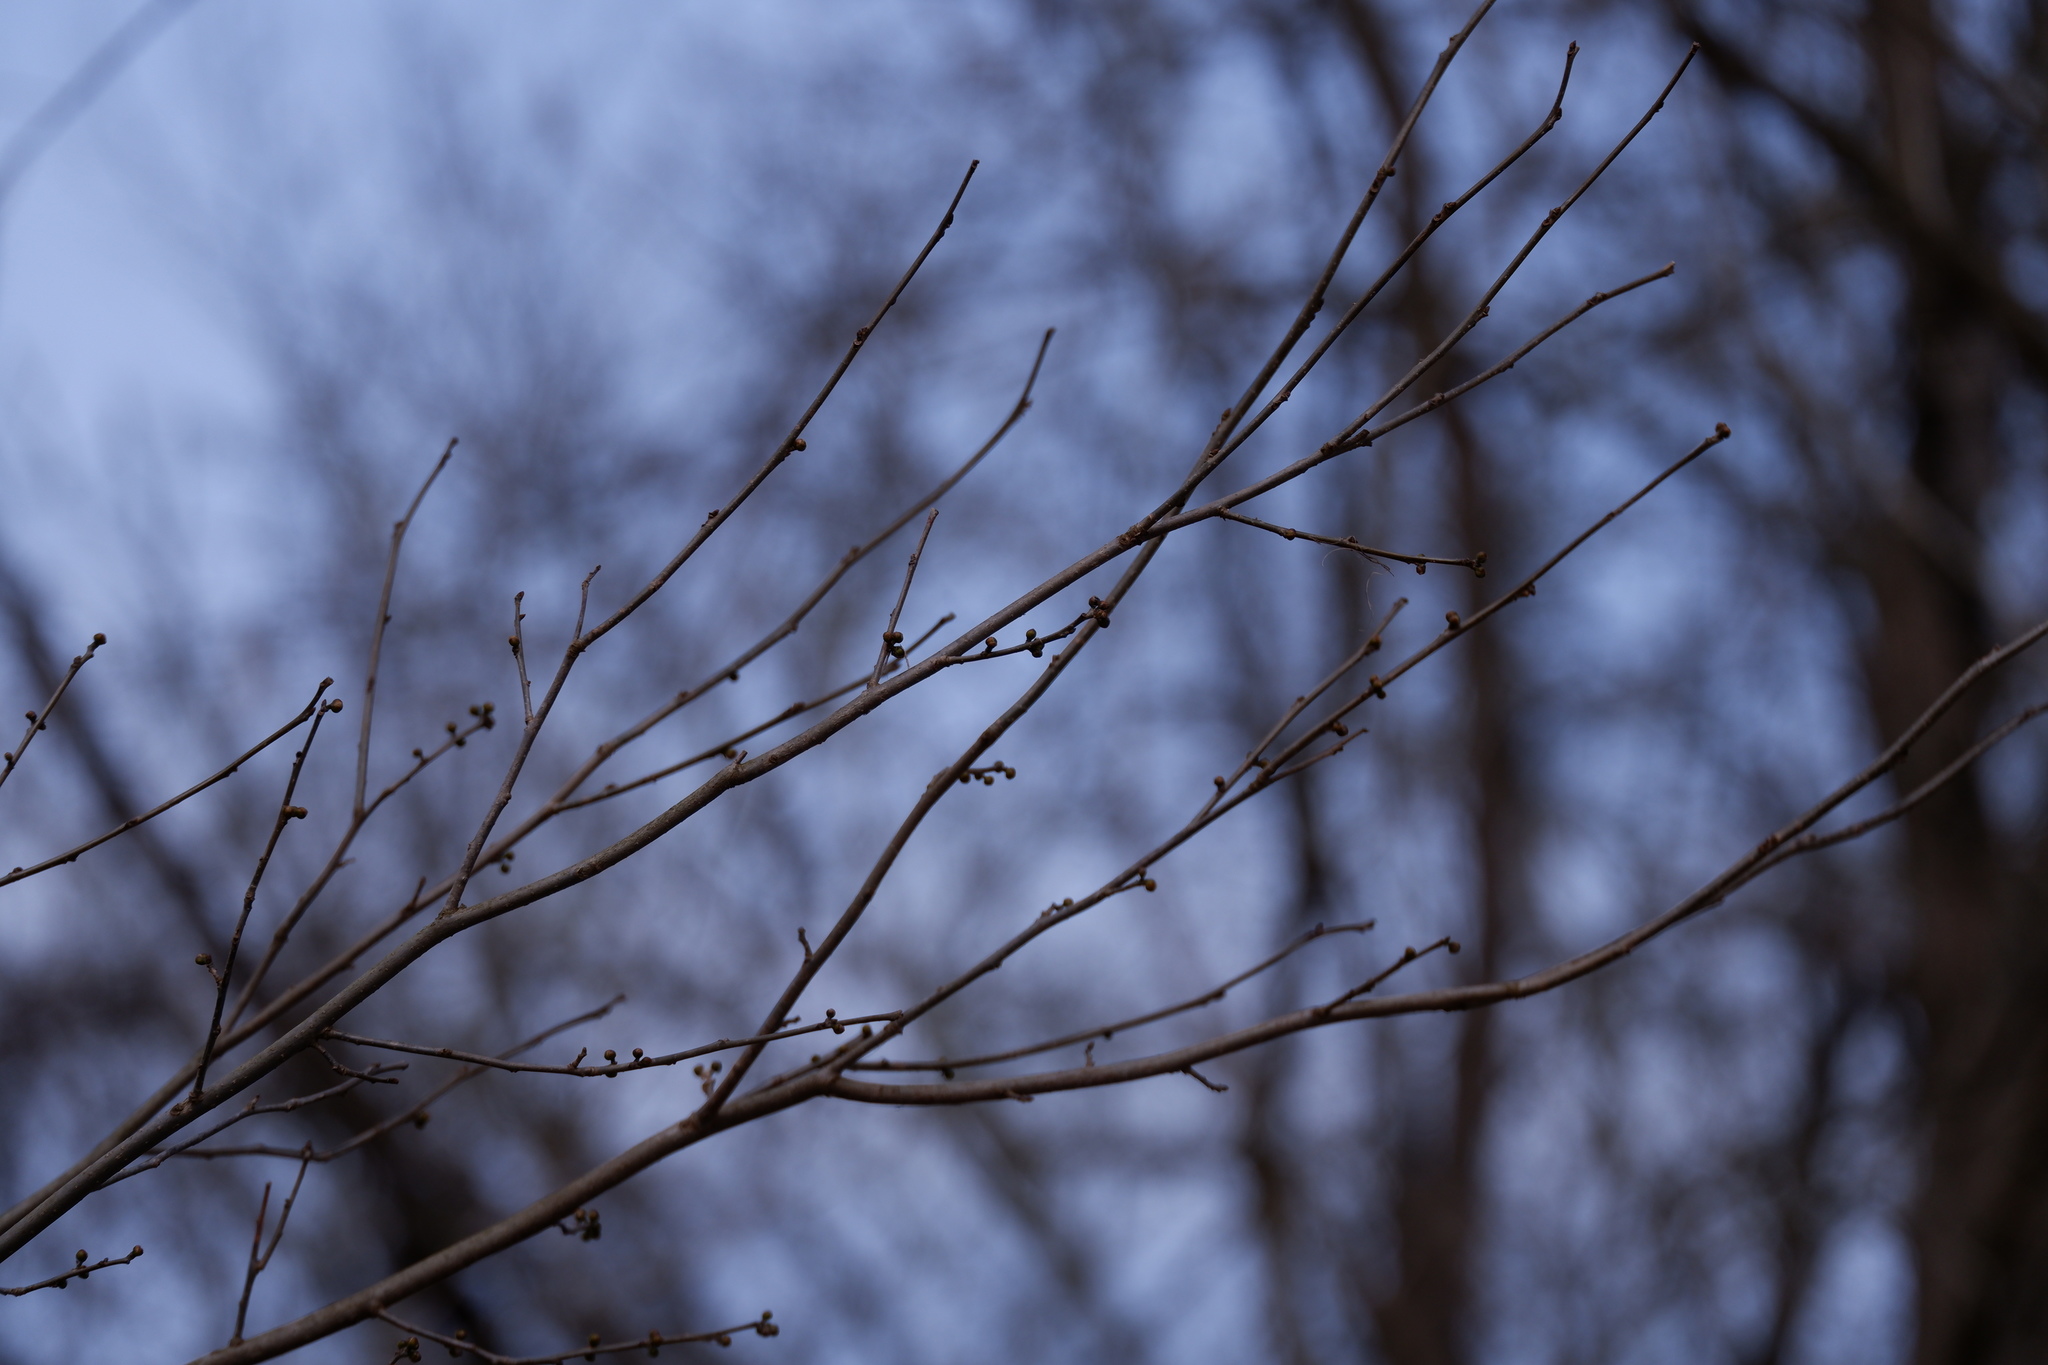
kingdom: Plantae
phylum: Tracheophyta
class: Magnoliopsida
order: Laurales
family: Lauraceae
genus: Lindera
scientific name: Lindera benzoin
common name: Spicebush
